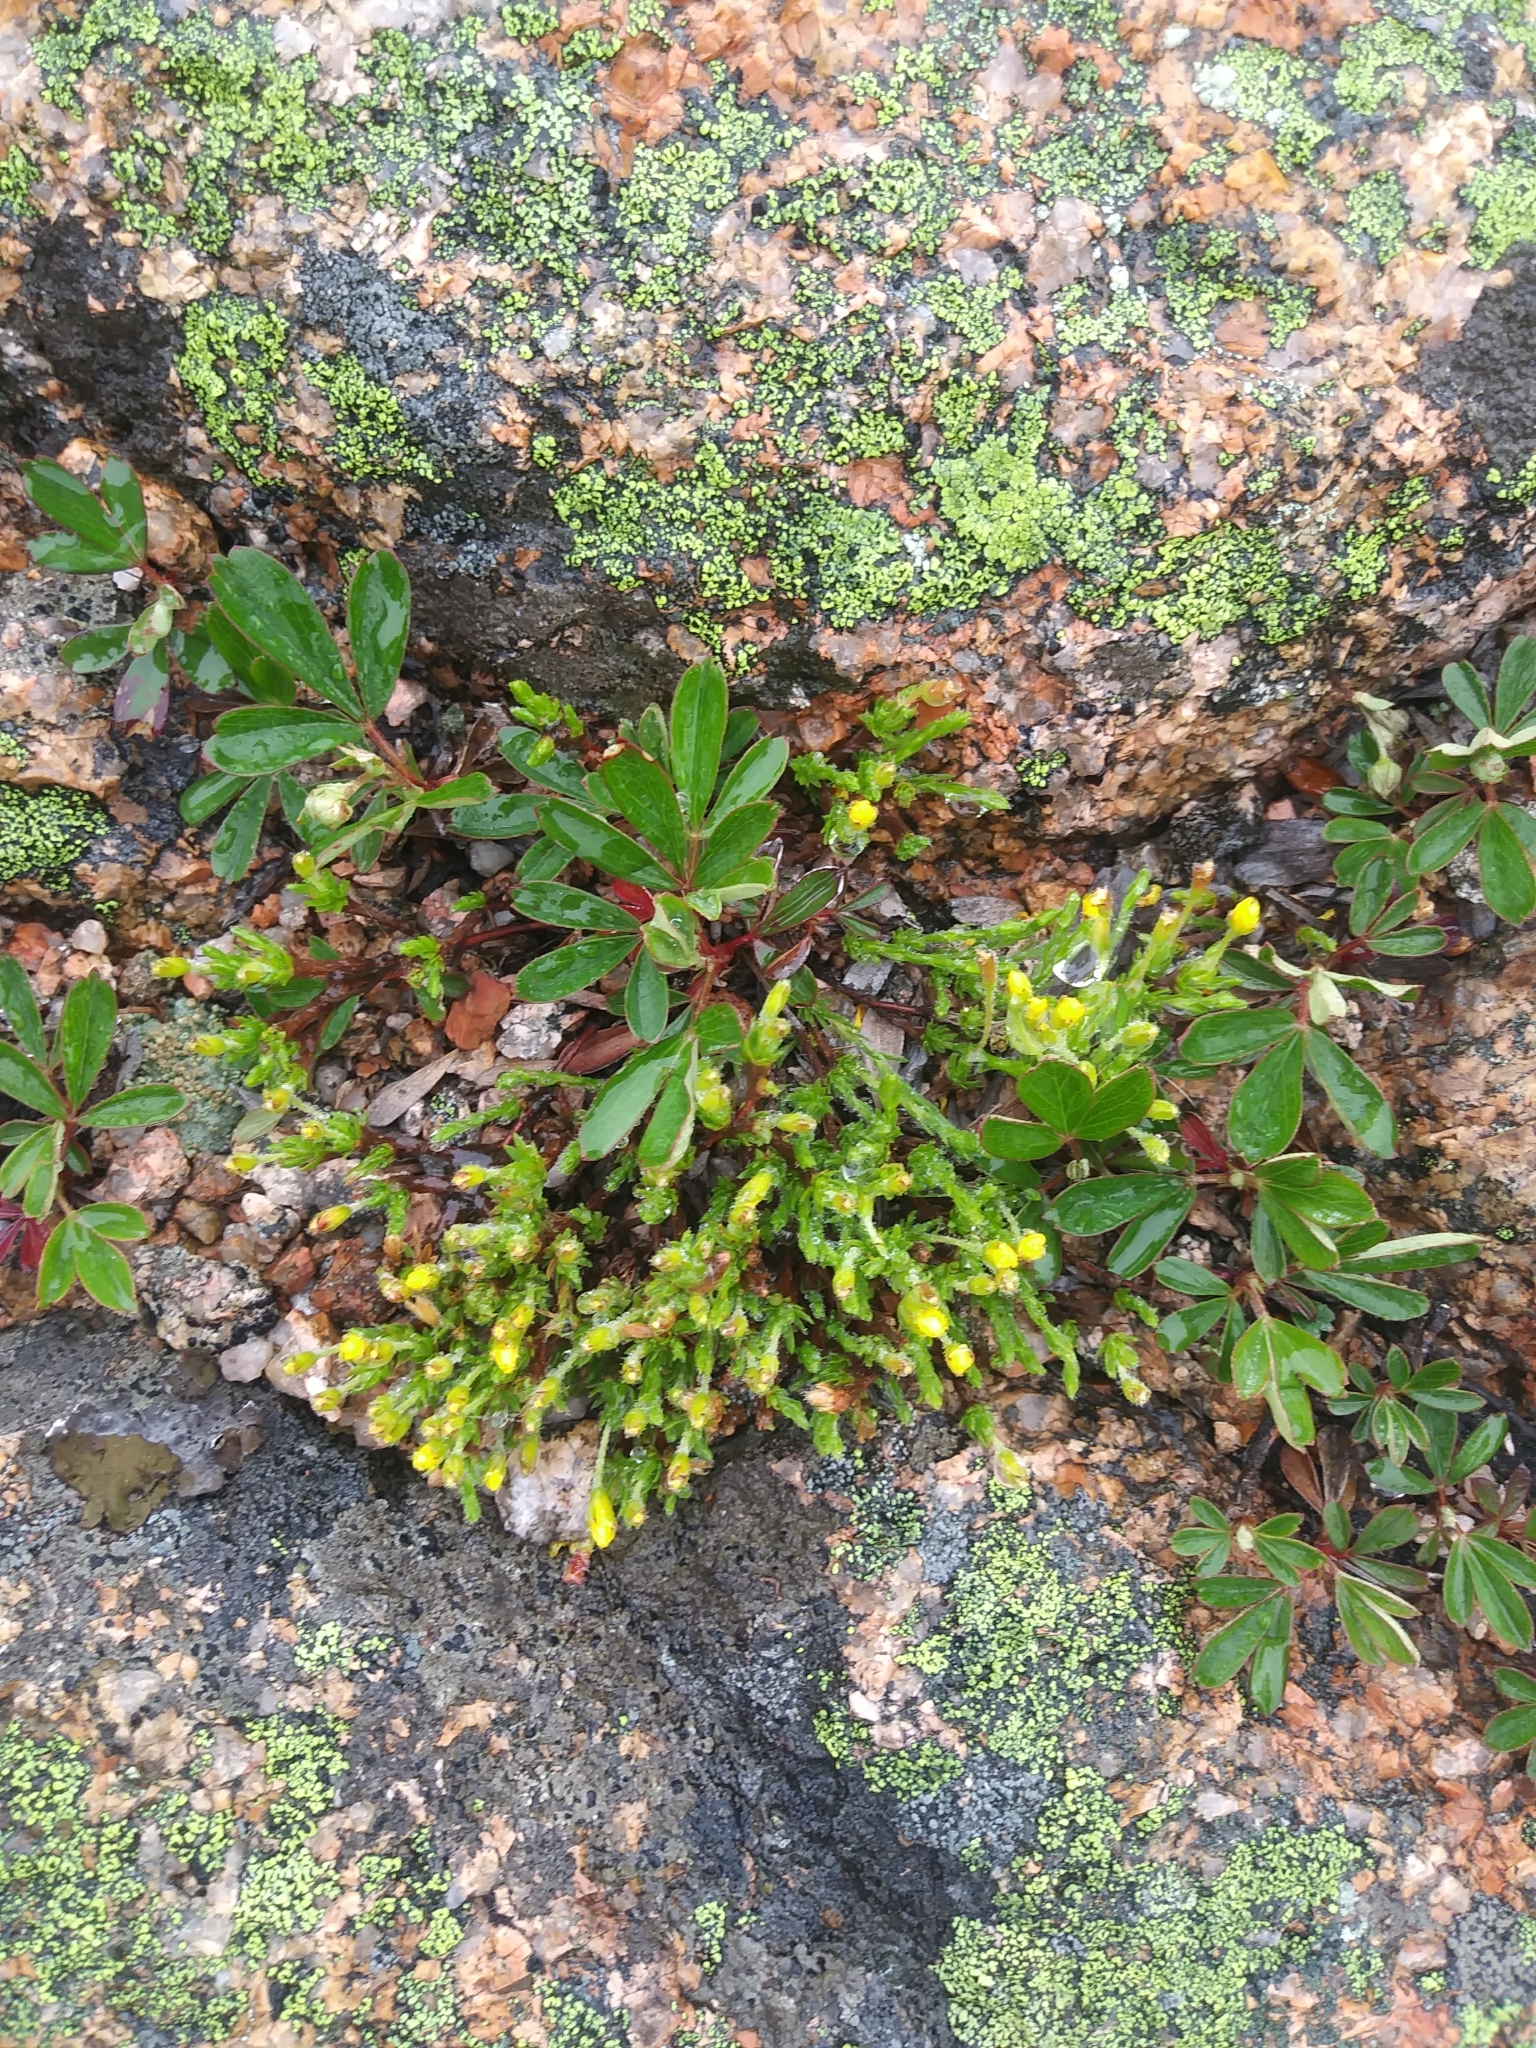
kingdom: Plantae
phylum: Tracheophyta
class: Magnoliopsida
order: Malvales
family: Cistaceae
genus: Hudsonia
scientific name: Hudsonia ericoides
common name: Golden-heather
